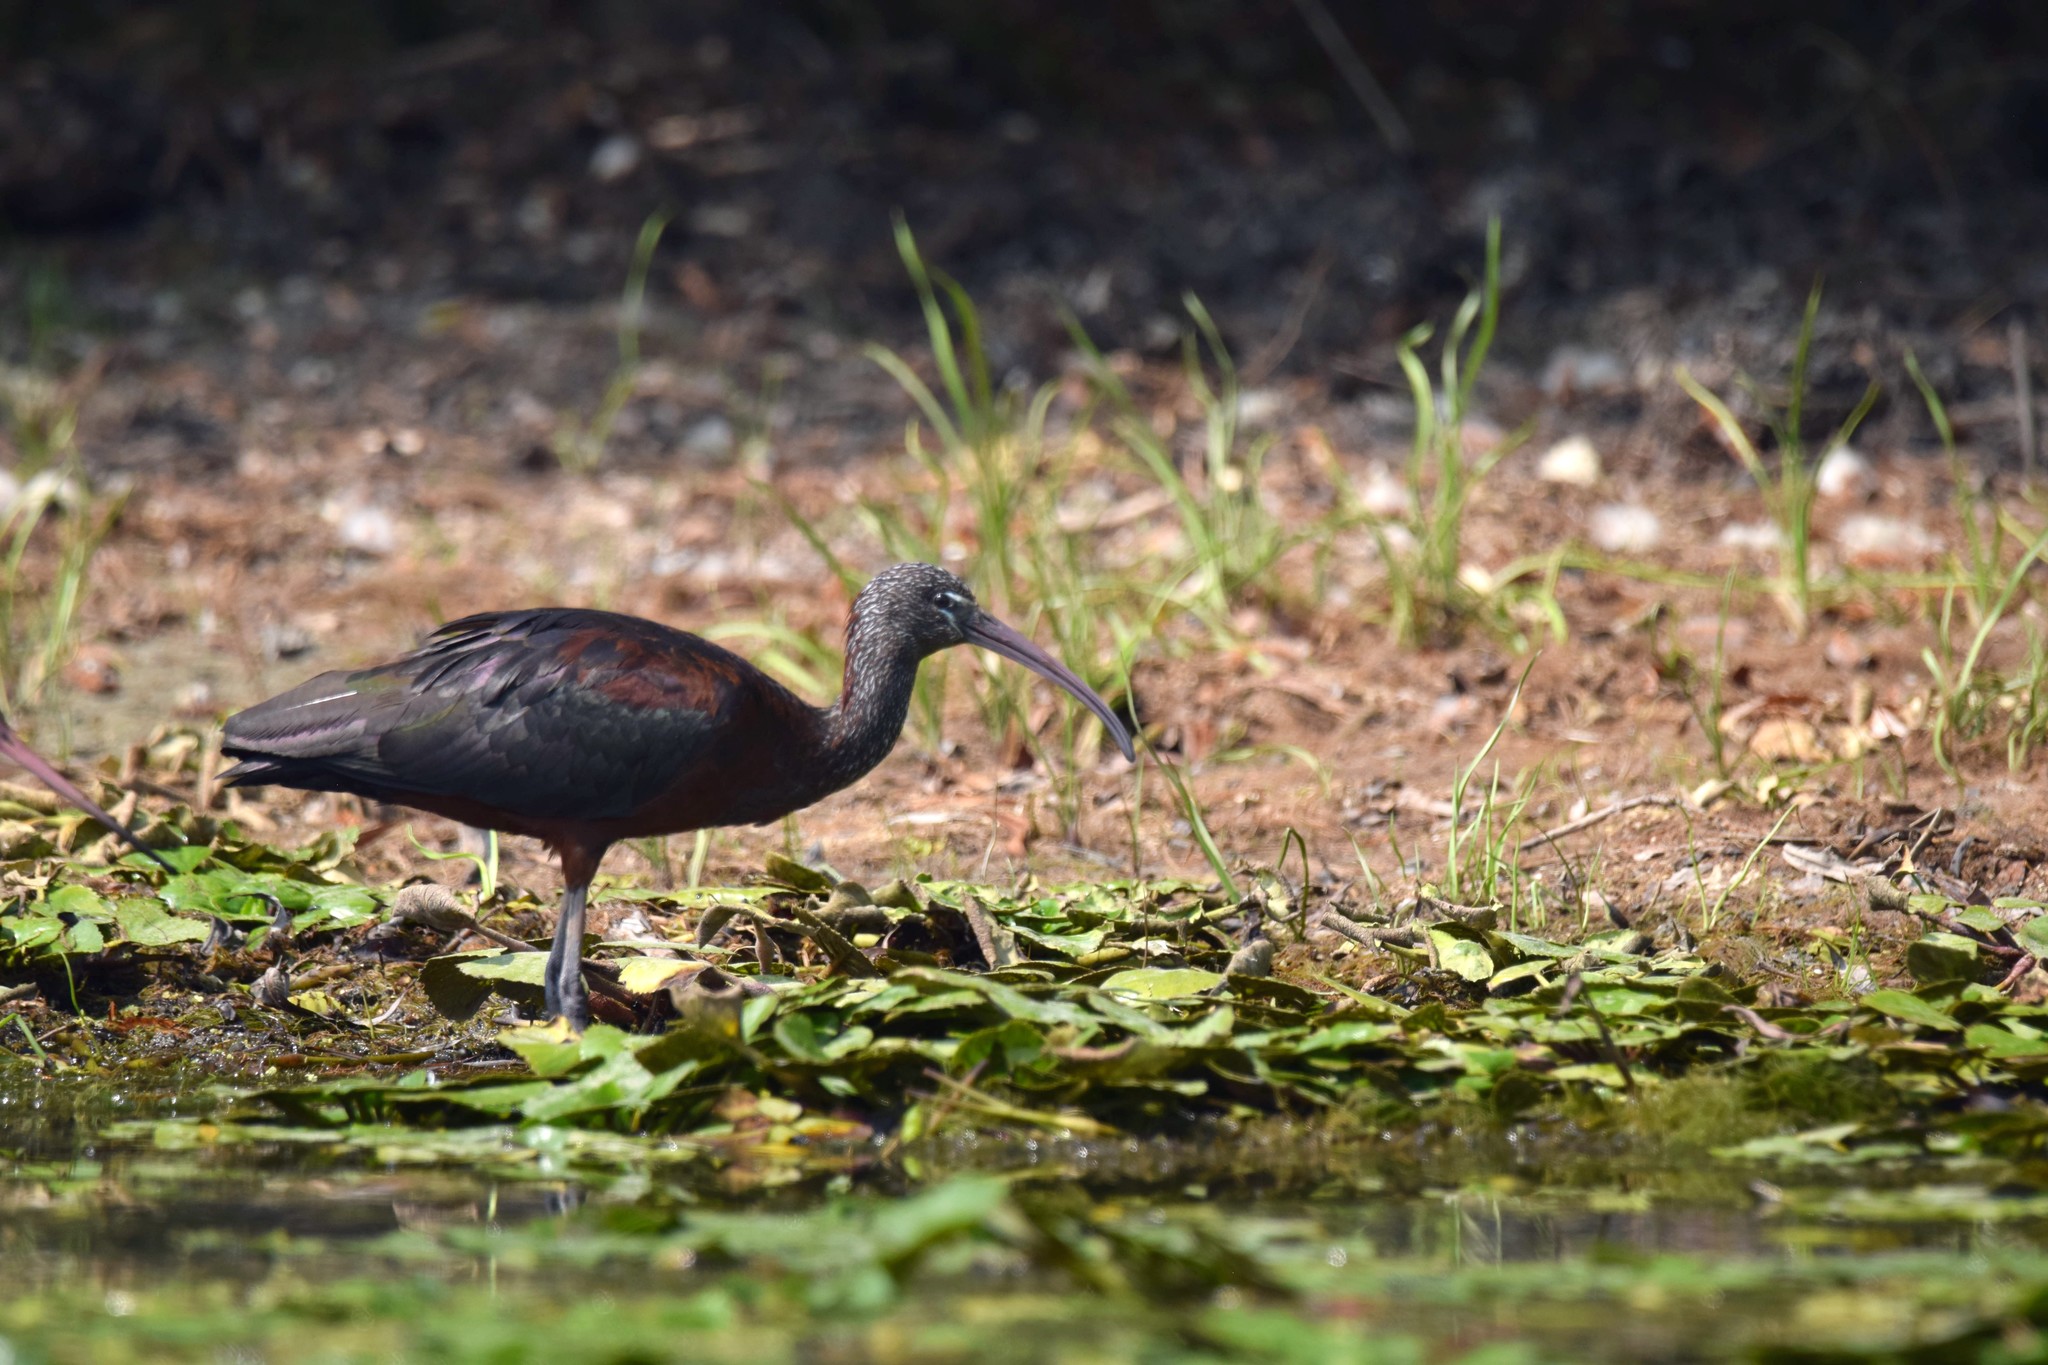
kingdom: Animalia
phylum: Chordata
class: Aves
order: Pelecaniformes
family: Threskiornithidae
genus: Plegadis
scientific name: Plegadis falcinellus
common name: Glossy ibis
